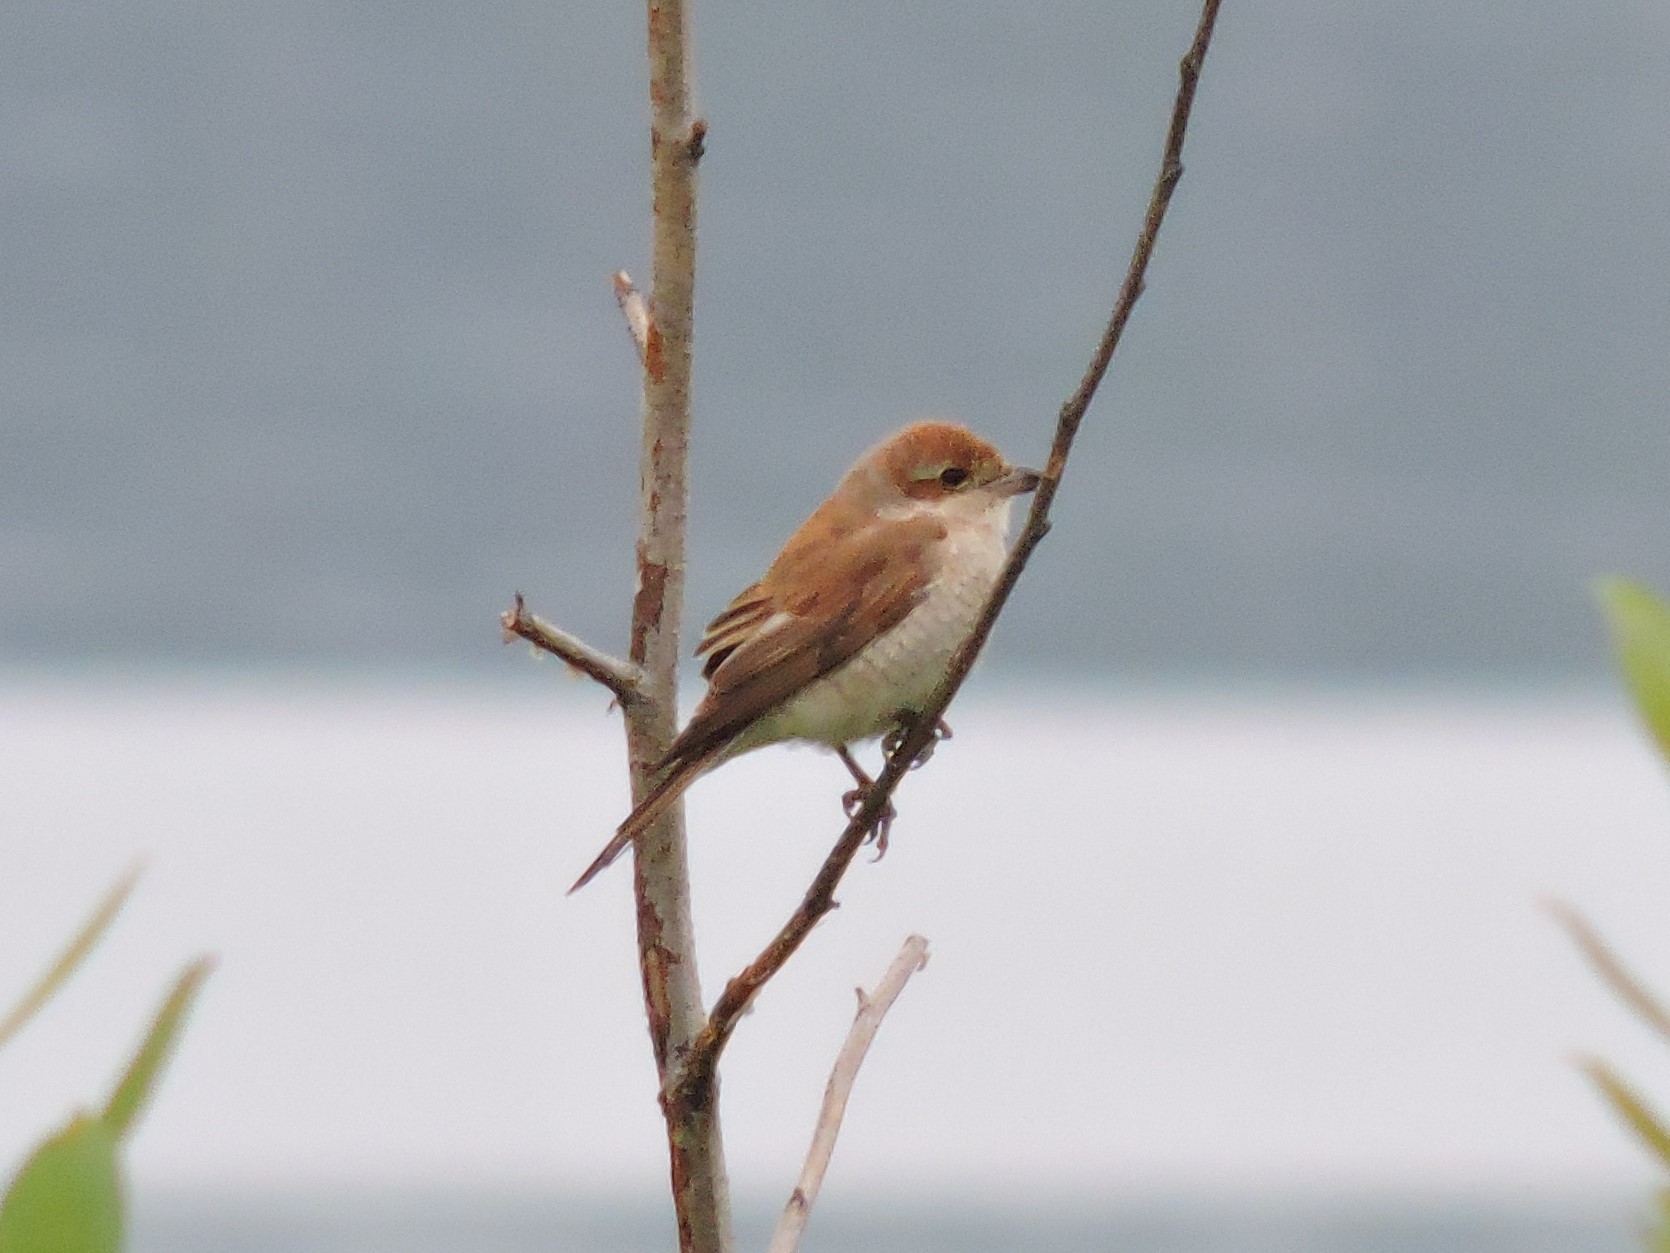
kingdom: Animalia
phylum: Chordata
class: Aves
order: Passeriformes
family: Laniidae
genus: Lanius
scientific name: Lanius collurio
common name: Red-backed shrike
